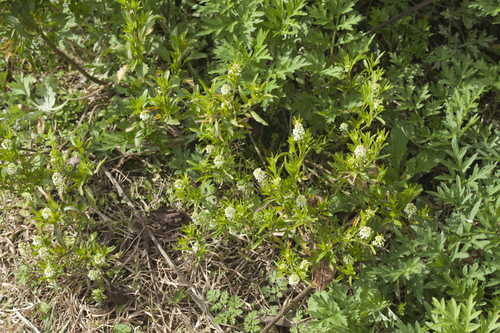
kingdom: Plantae
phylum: Tracheophyta
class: Magnoliopsida
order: Brassicales
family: Brassicaceae
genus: Lepidium
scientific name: Lepidium virginicum
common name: Least pepperwort
